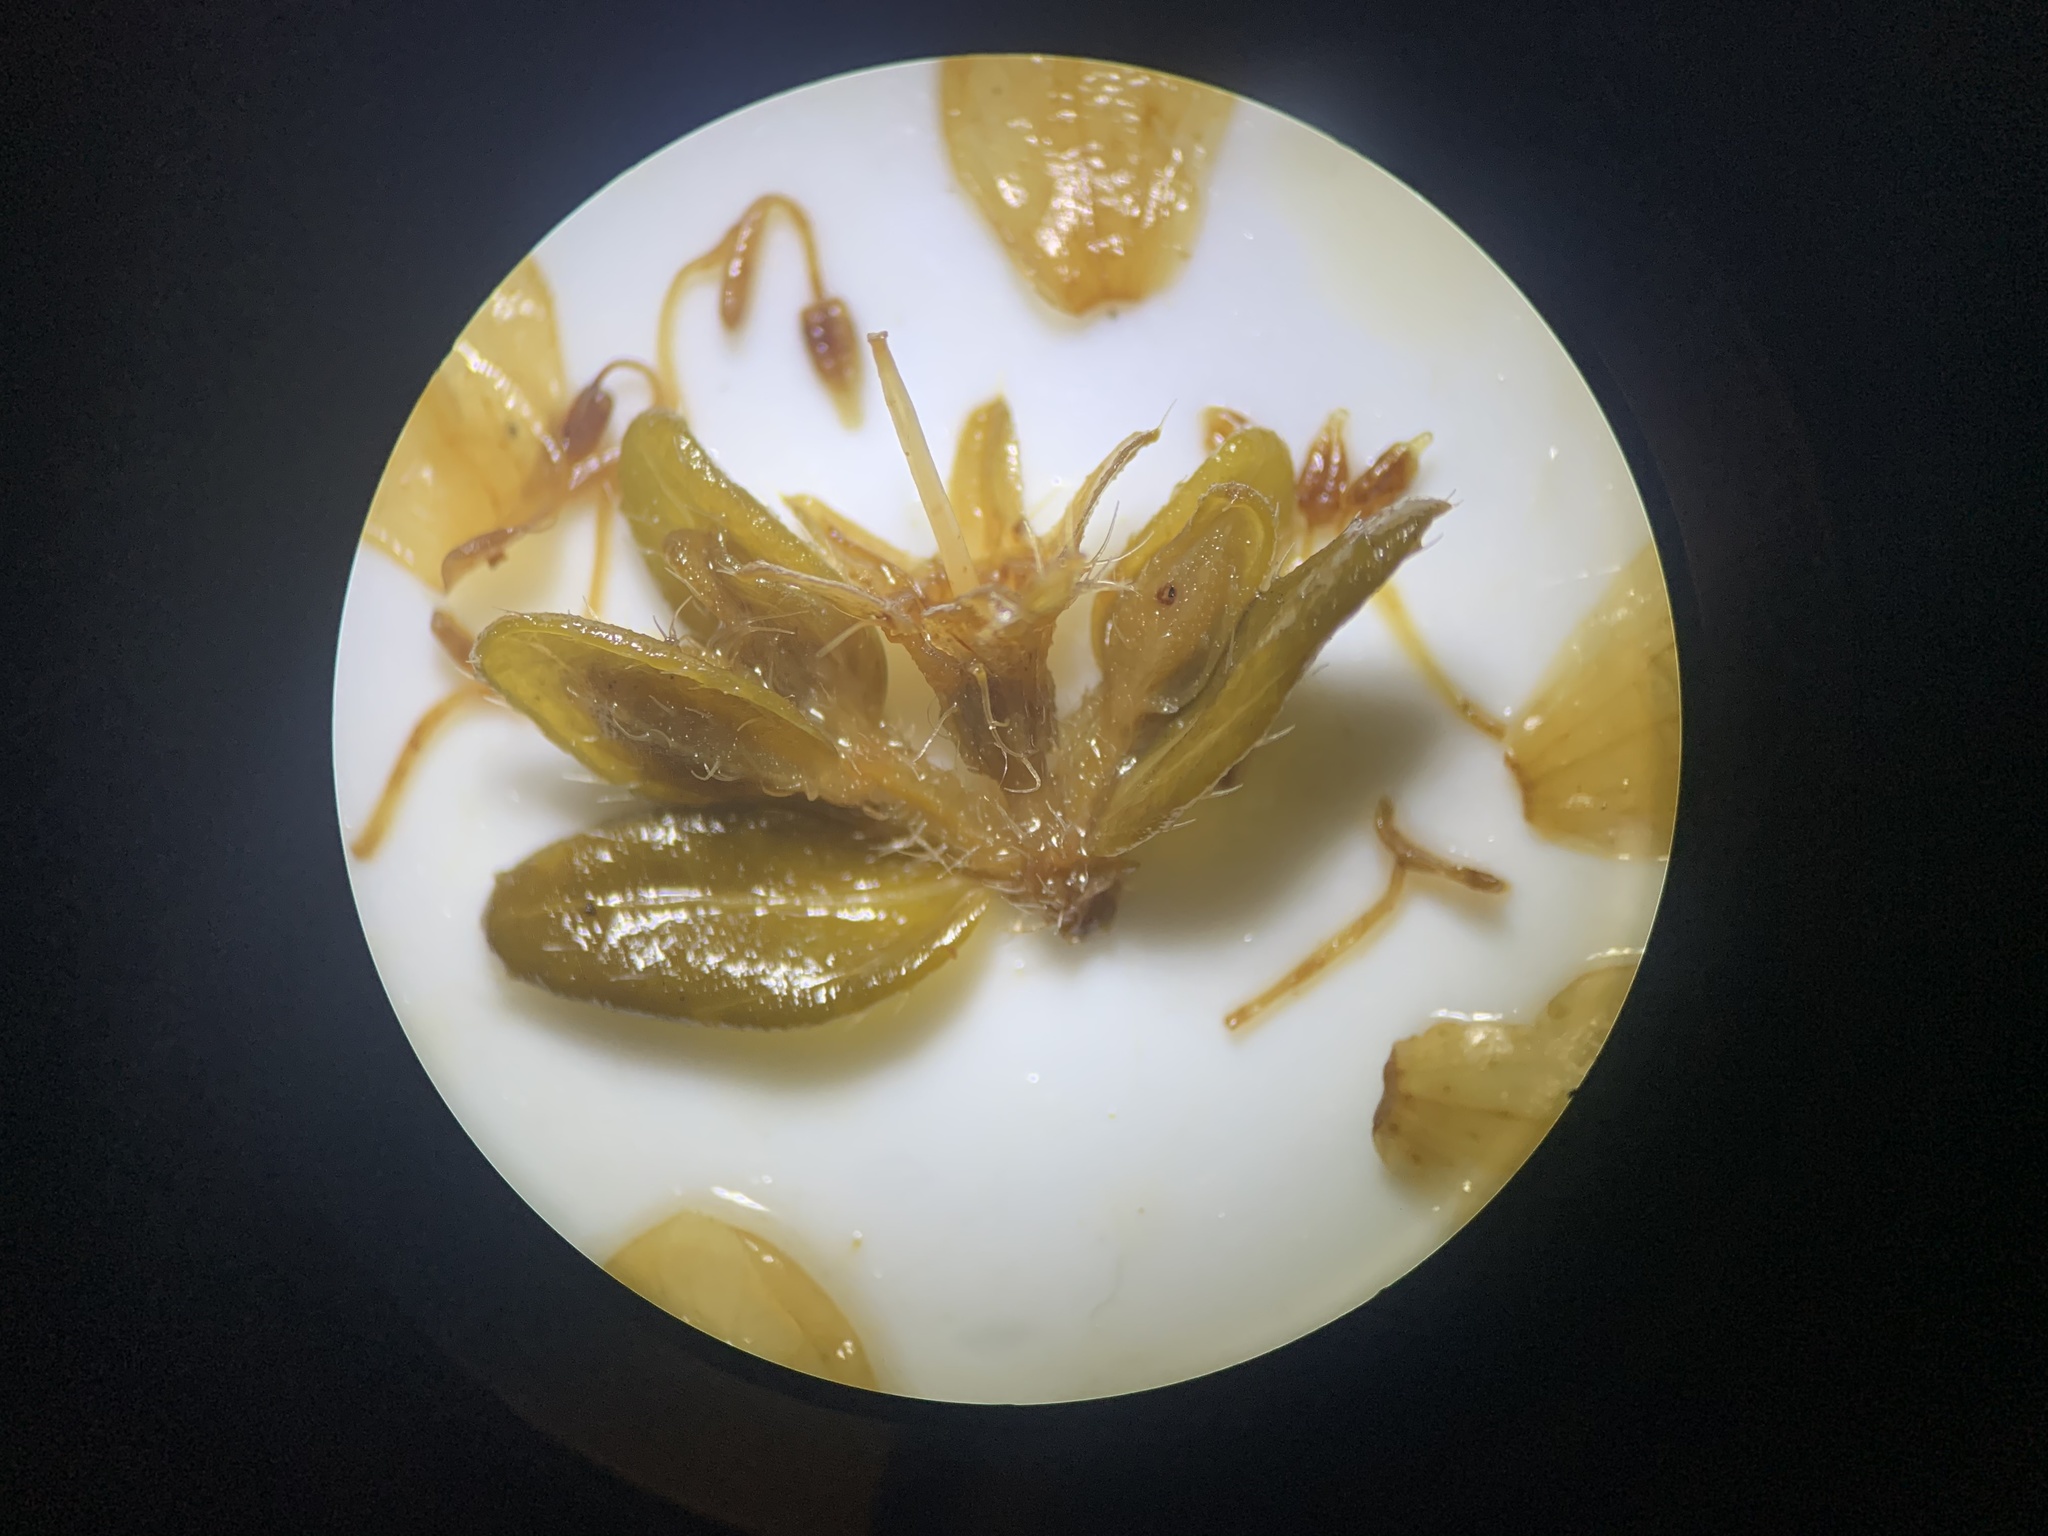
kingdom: Plantae
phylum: Tracheophyta
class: Magnoliopsida
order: Myrtales
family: Melastomataceae
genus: Microlicia
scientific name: Microlicia sphagnicola
